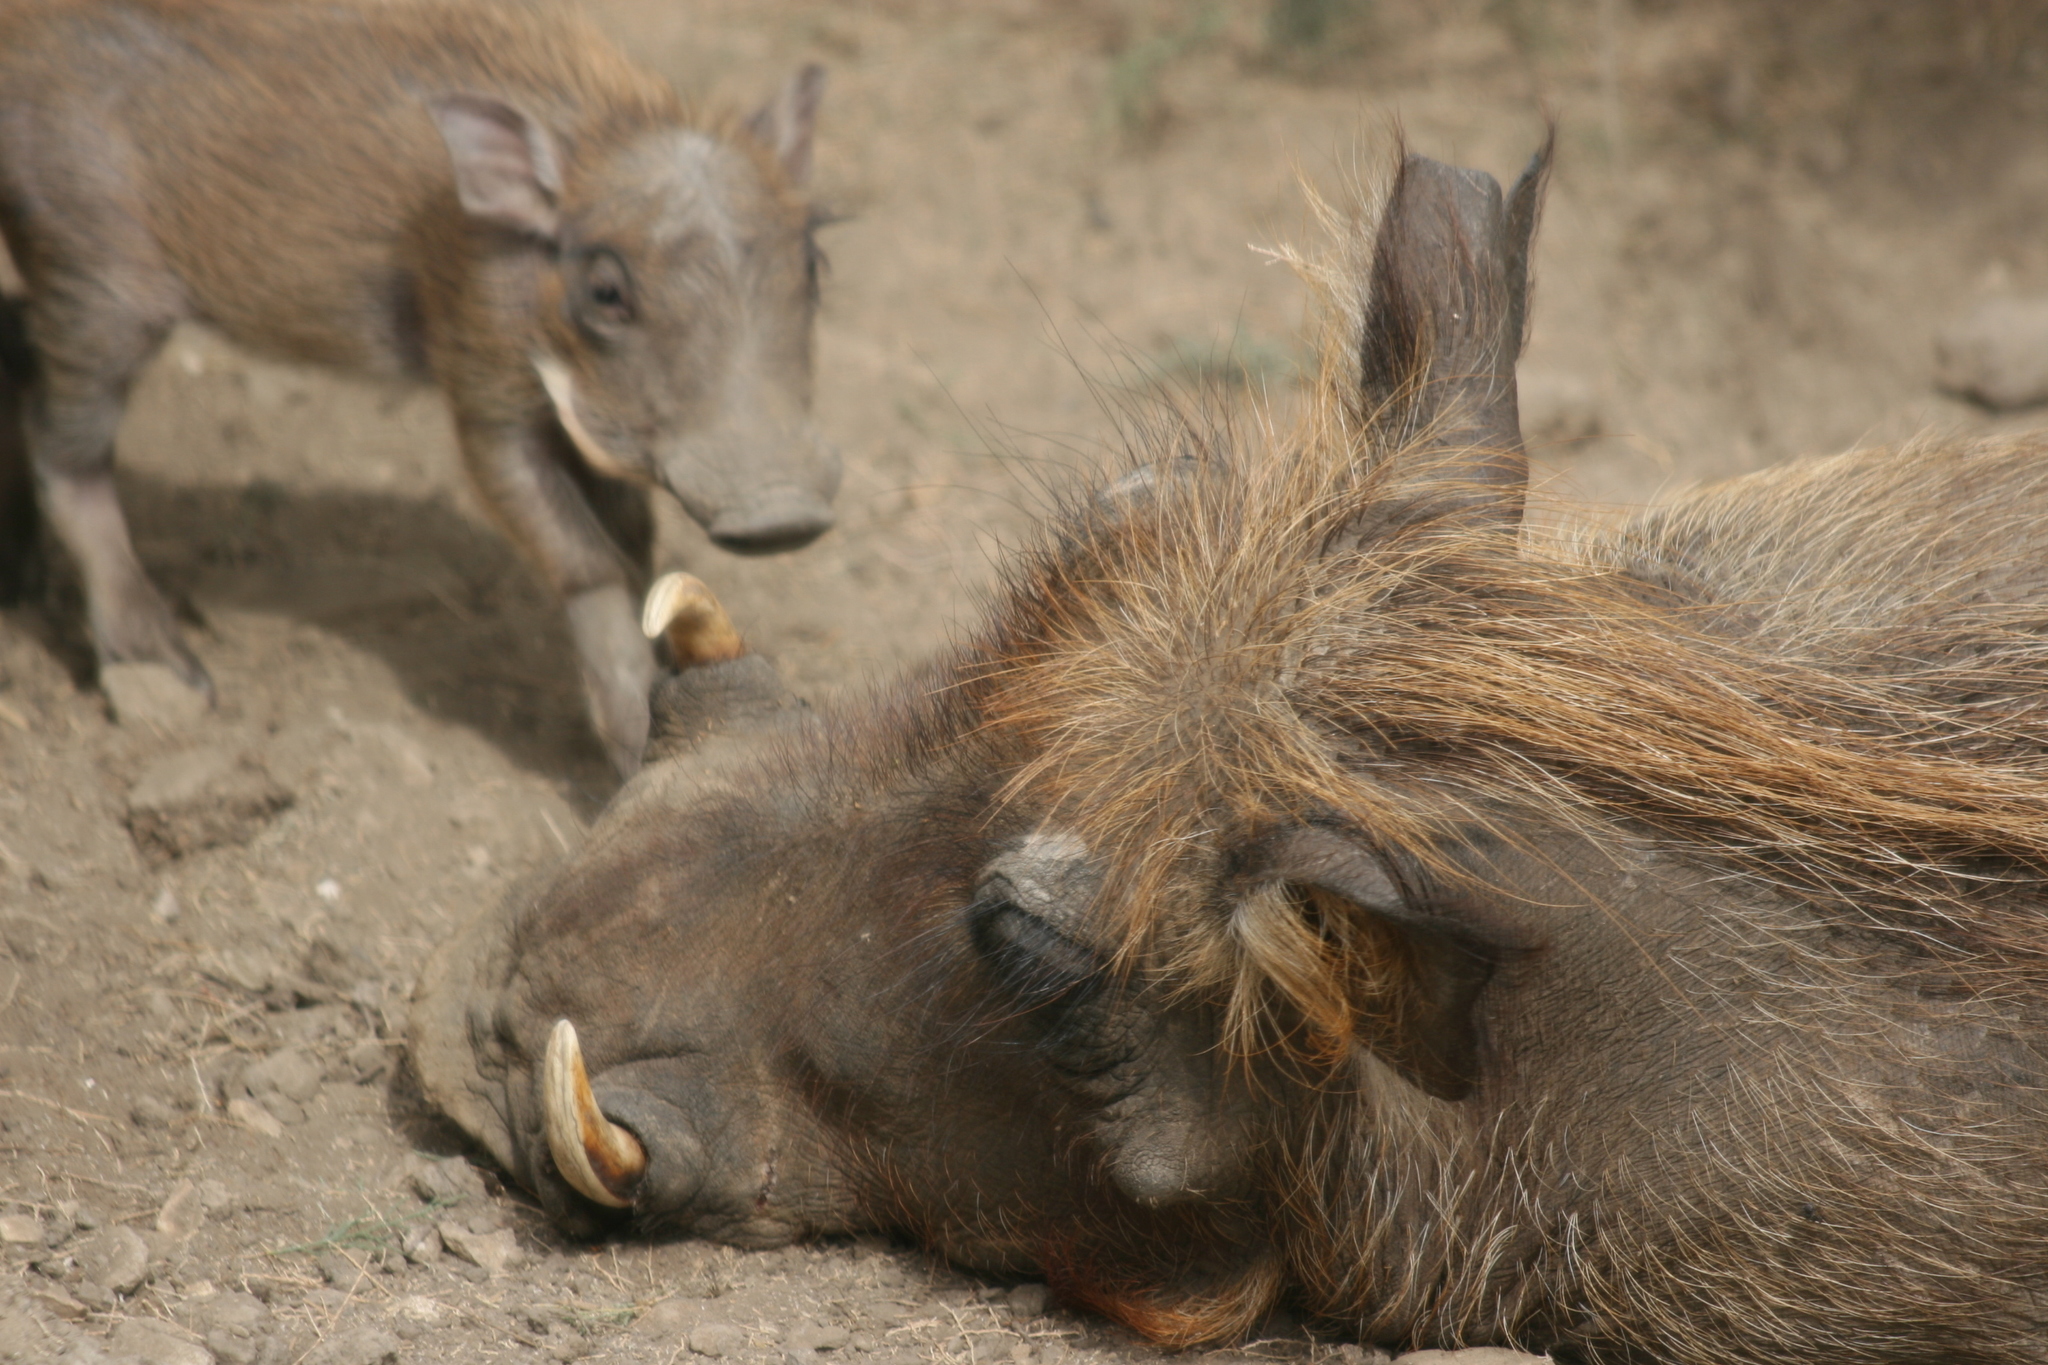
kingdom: Animalia
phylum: Chordata
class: Mammalia
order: Artiodactyla
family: Suidae
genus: Phacochoerus
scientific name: Phacochoerus africanus
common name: Common warthog
